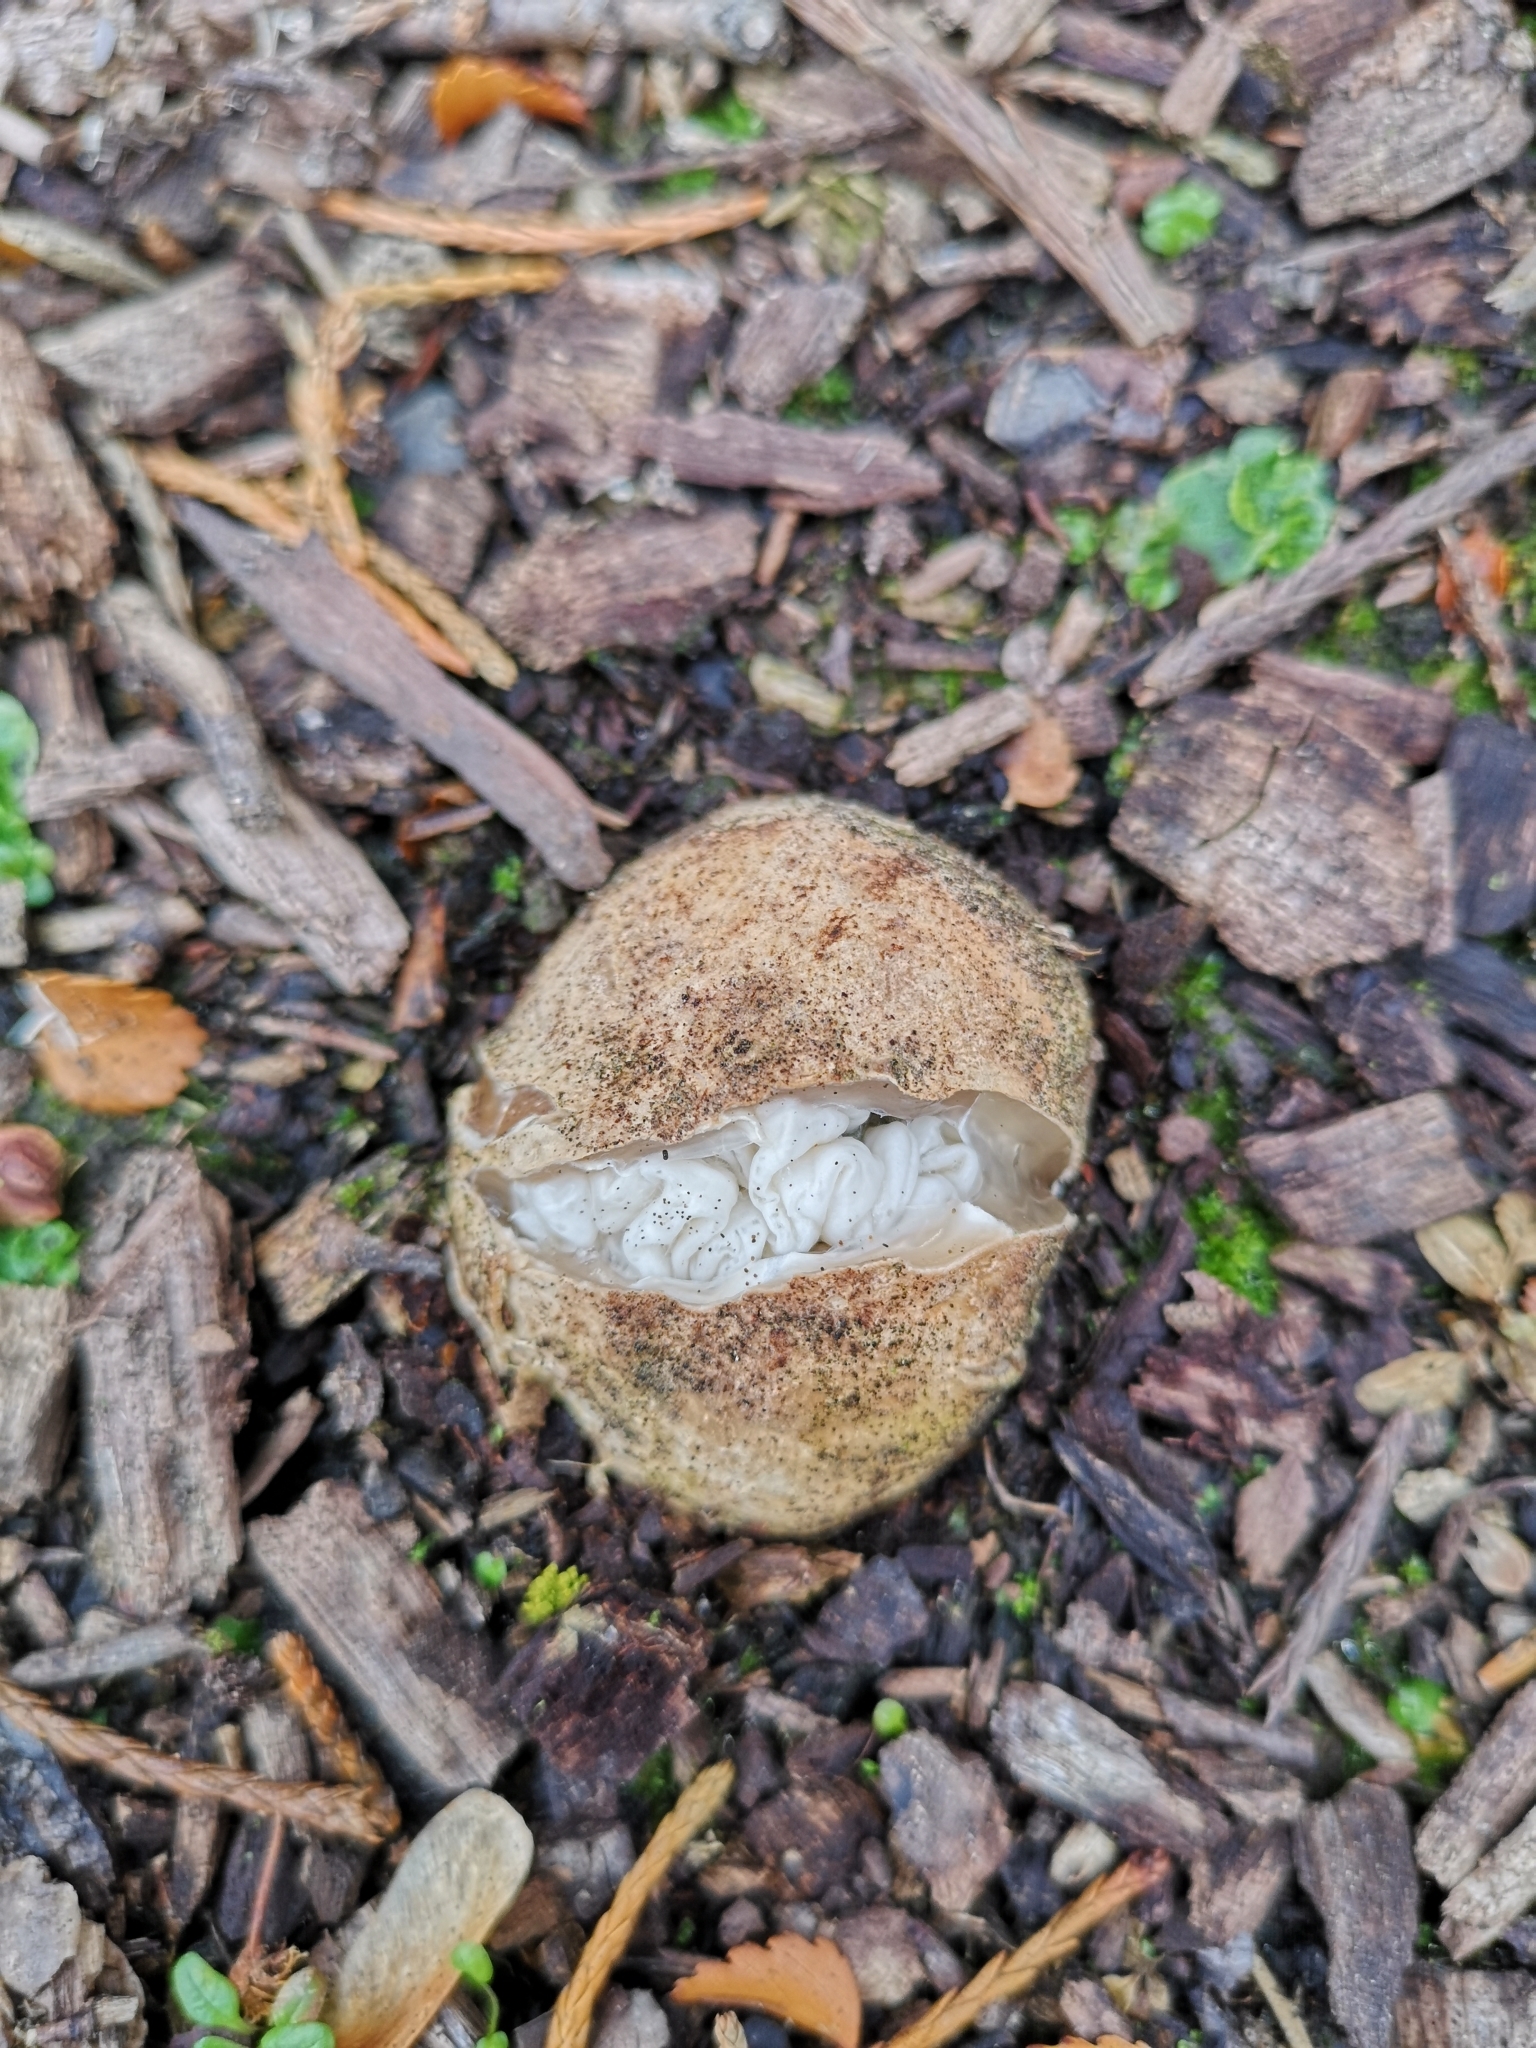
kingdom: Fungi
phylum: Basidiomycota
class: Agaricomycetes
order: Phallales
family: Phallaceae
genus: Ileodictyon
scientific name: Ileodictyon cibarium
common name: Basket fungus
